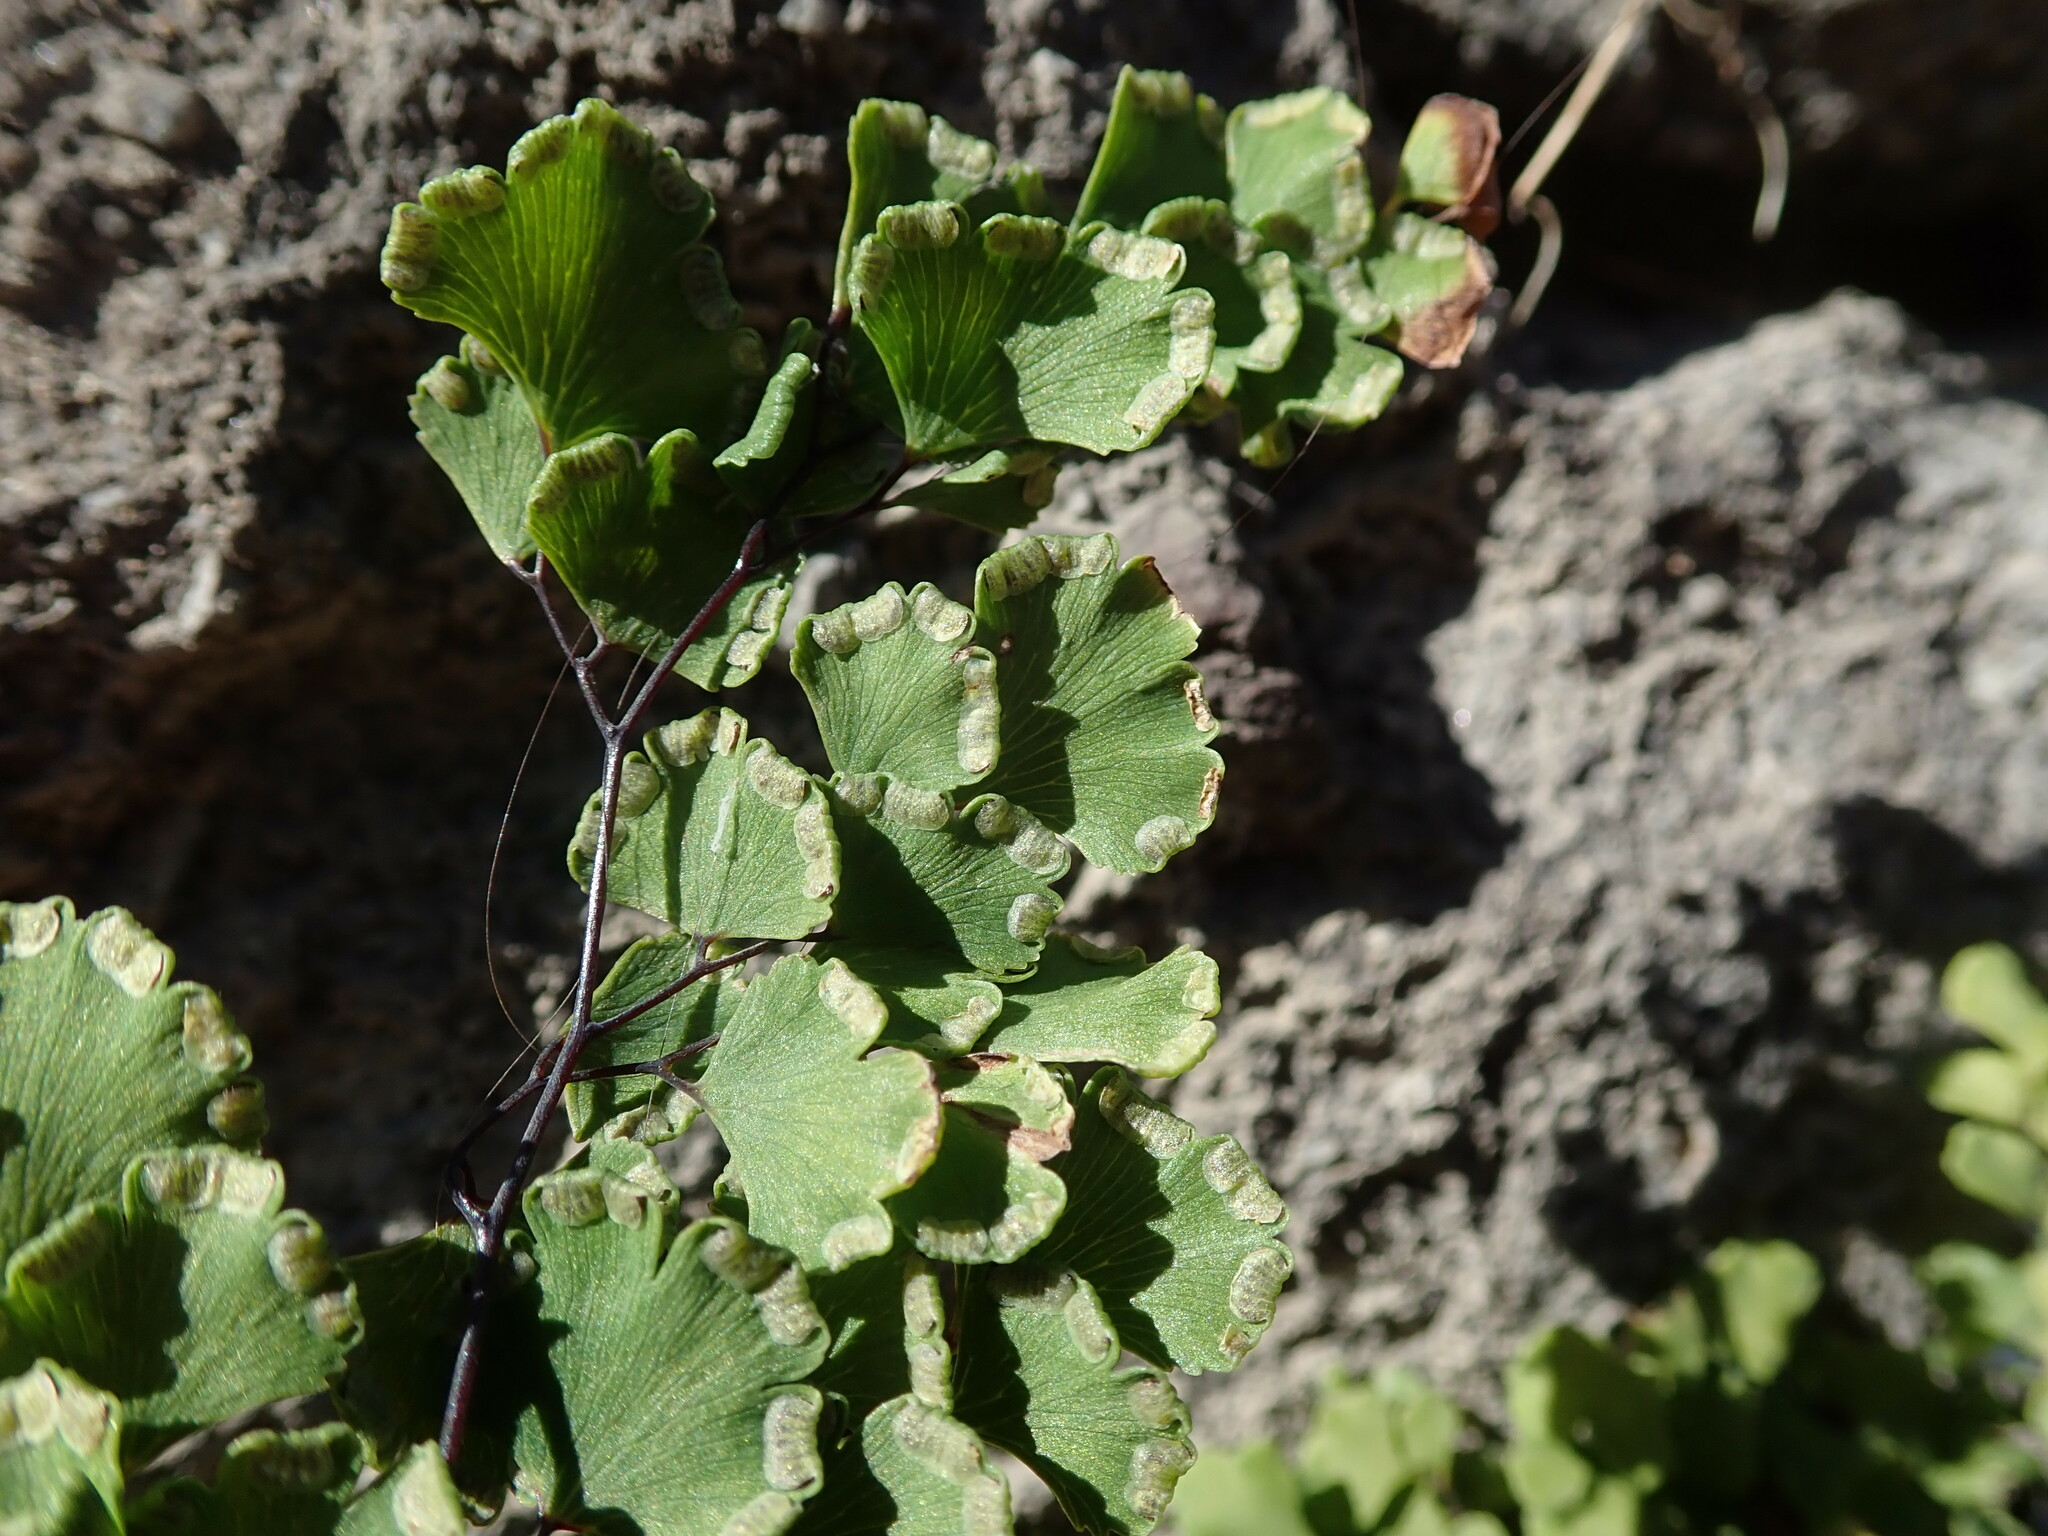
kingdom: Plantae
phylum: Tracheophyta
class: Polypodiopsida
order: Polypodiales
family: Pteridaceae
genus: Adiantum
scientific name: Adiantum capillus-veneris
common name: Maidenhair fern
